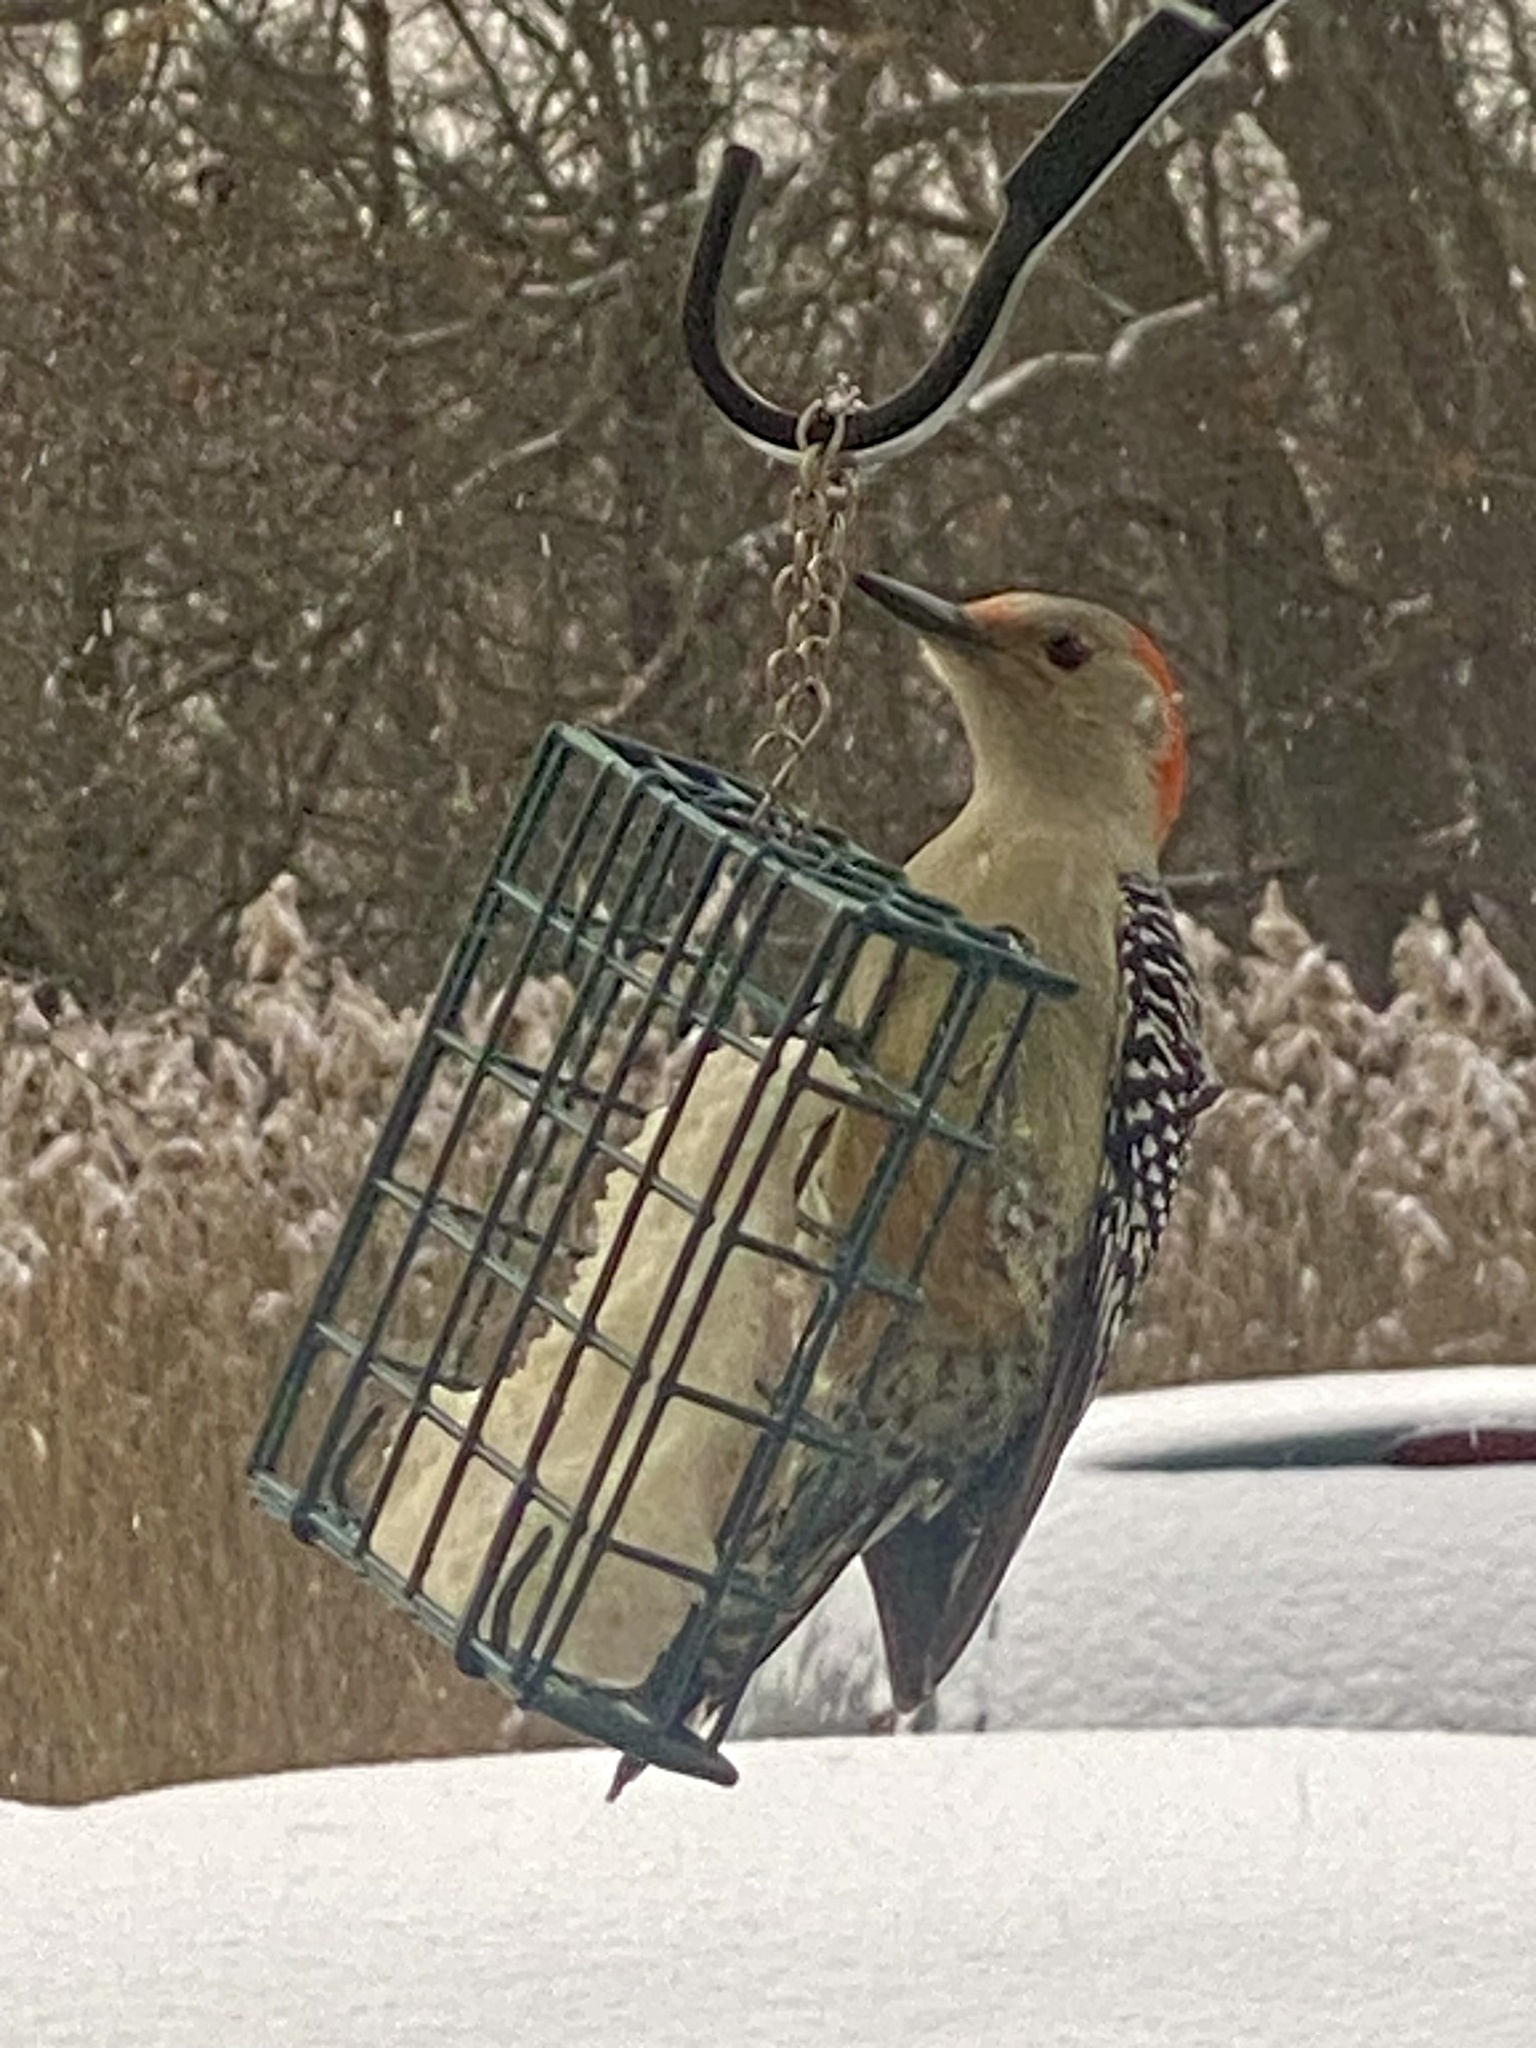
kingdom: Animalia
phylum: Chordata
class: Aves
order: Piciformes
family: Picidae
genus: Melanerpes
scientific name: Melanerpes carolinus
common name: Red-bellied woodpecker
